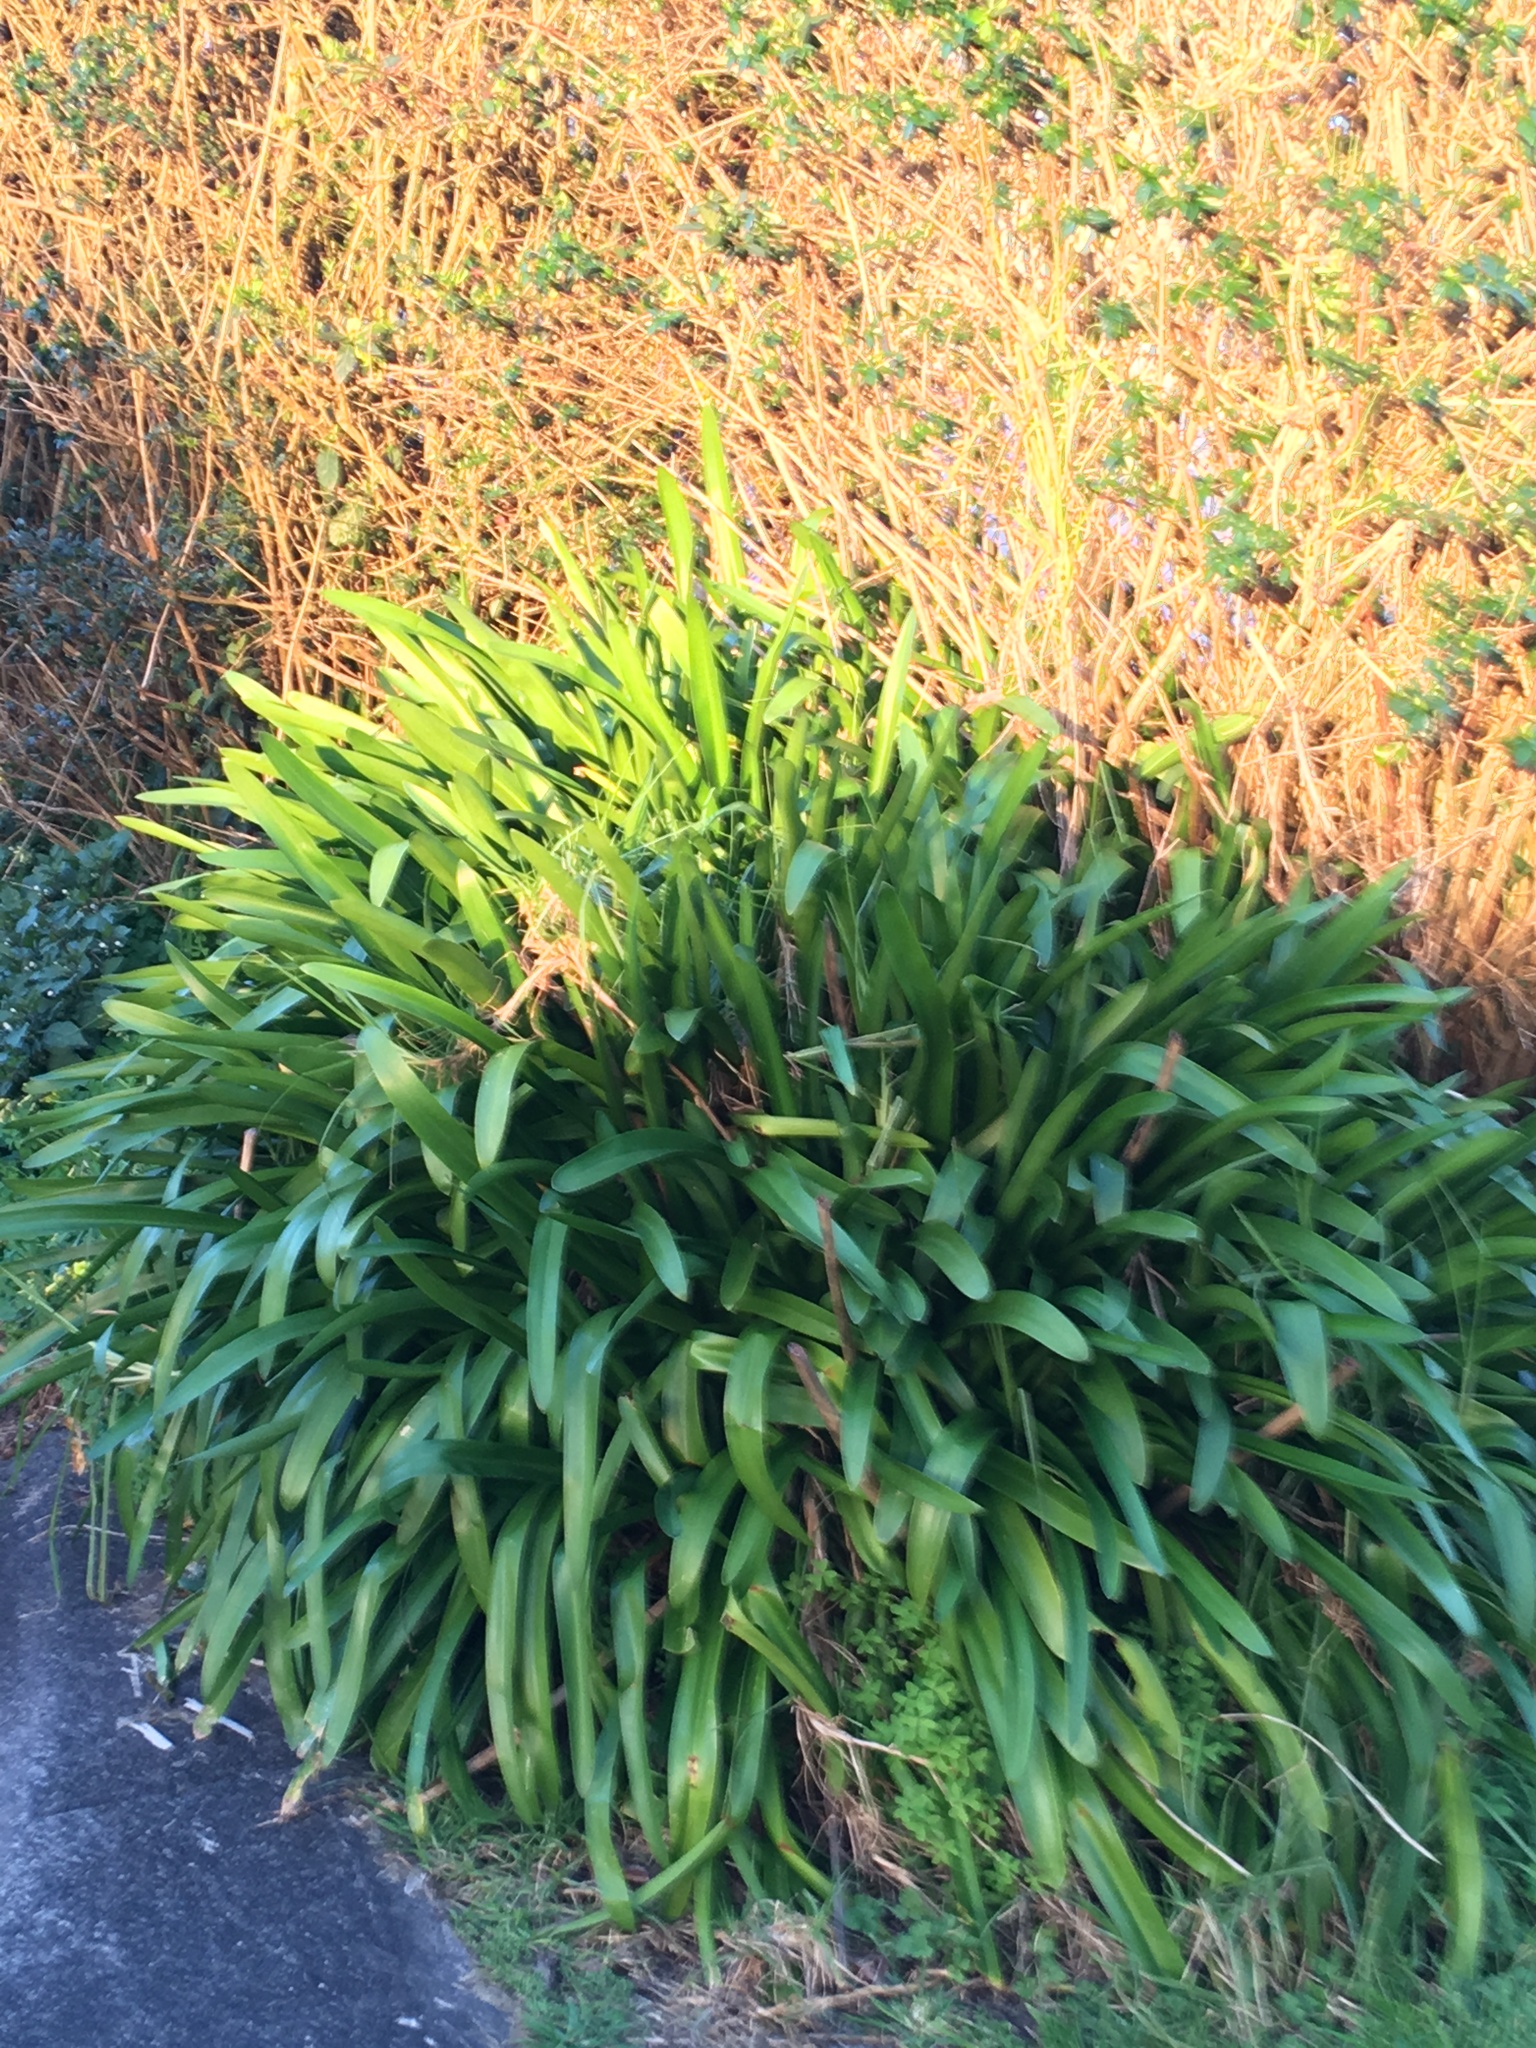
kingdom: Plantae
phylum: Tracheophyta
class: Liliopsida
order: Asparagales
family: Amaryllidaceae
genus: Agapanthus
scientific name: Agapanthus praecox
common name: African-lily
